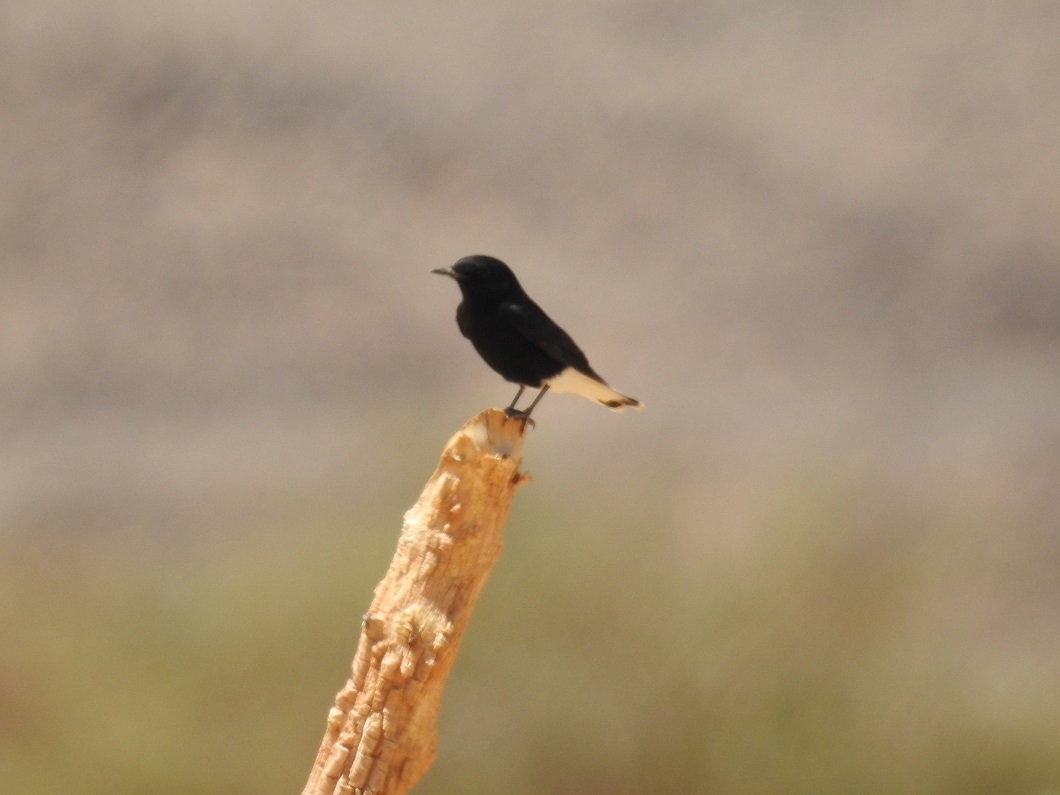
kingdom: Animalia
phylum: Chordata
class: Aves
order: Passeriformes
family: Muscicapidae
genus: Oenanthe
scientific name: Oenanthe leucopyga
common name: White-crowned wheatear
